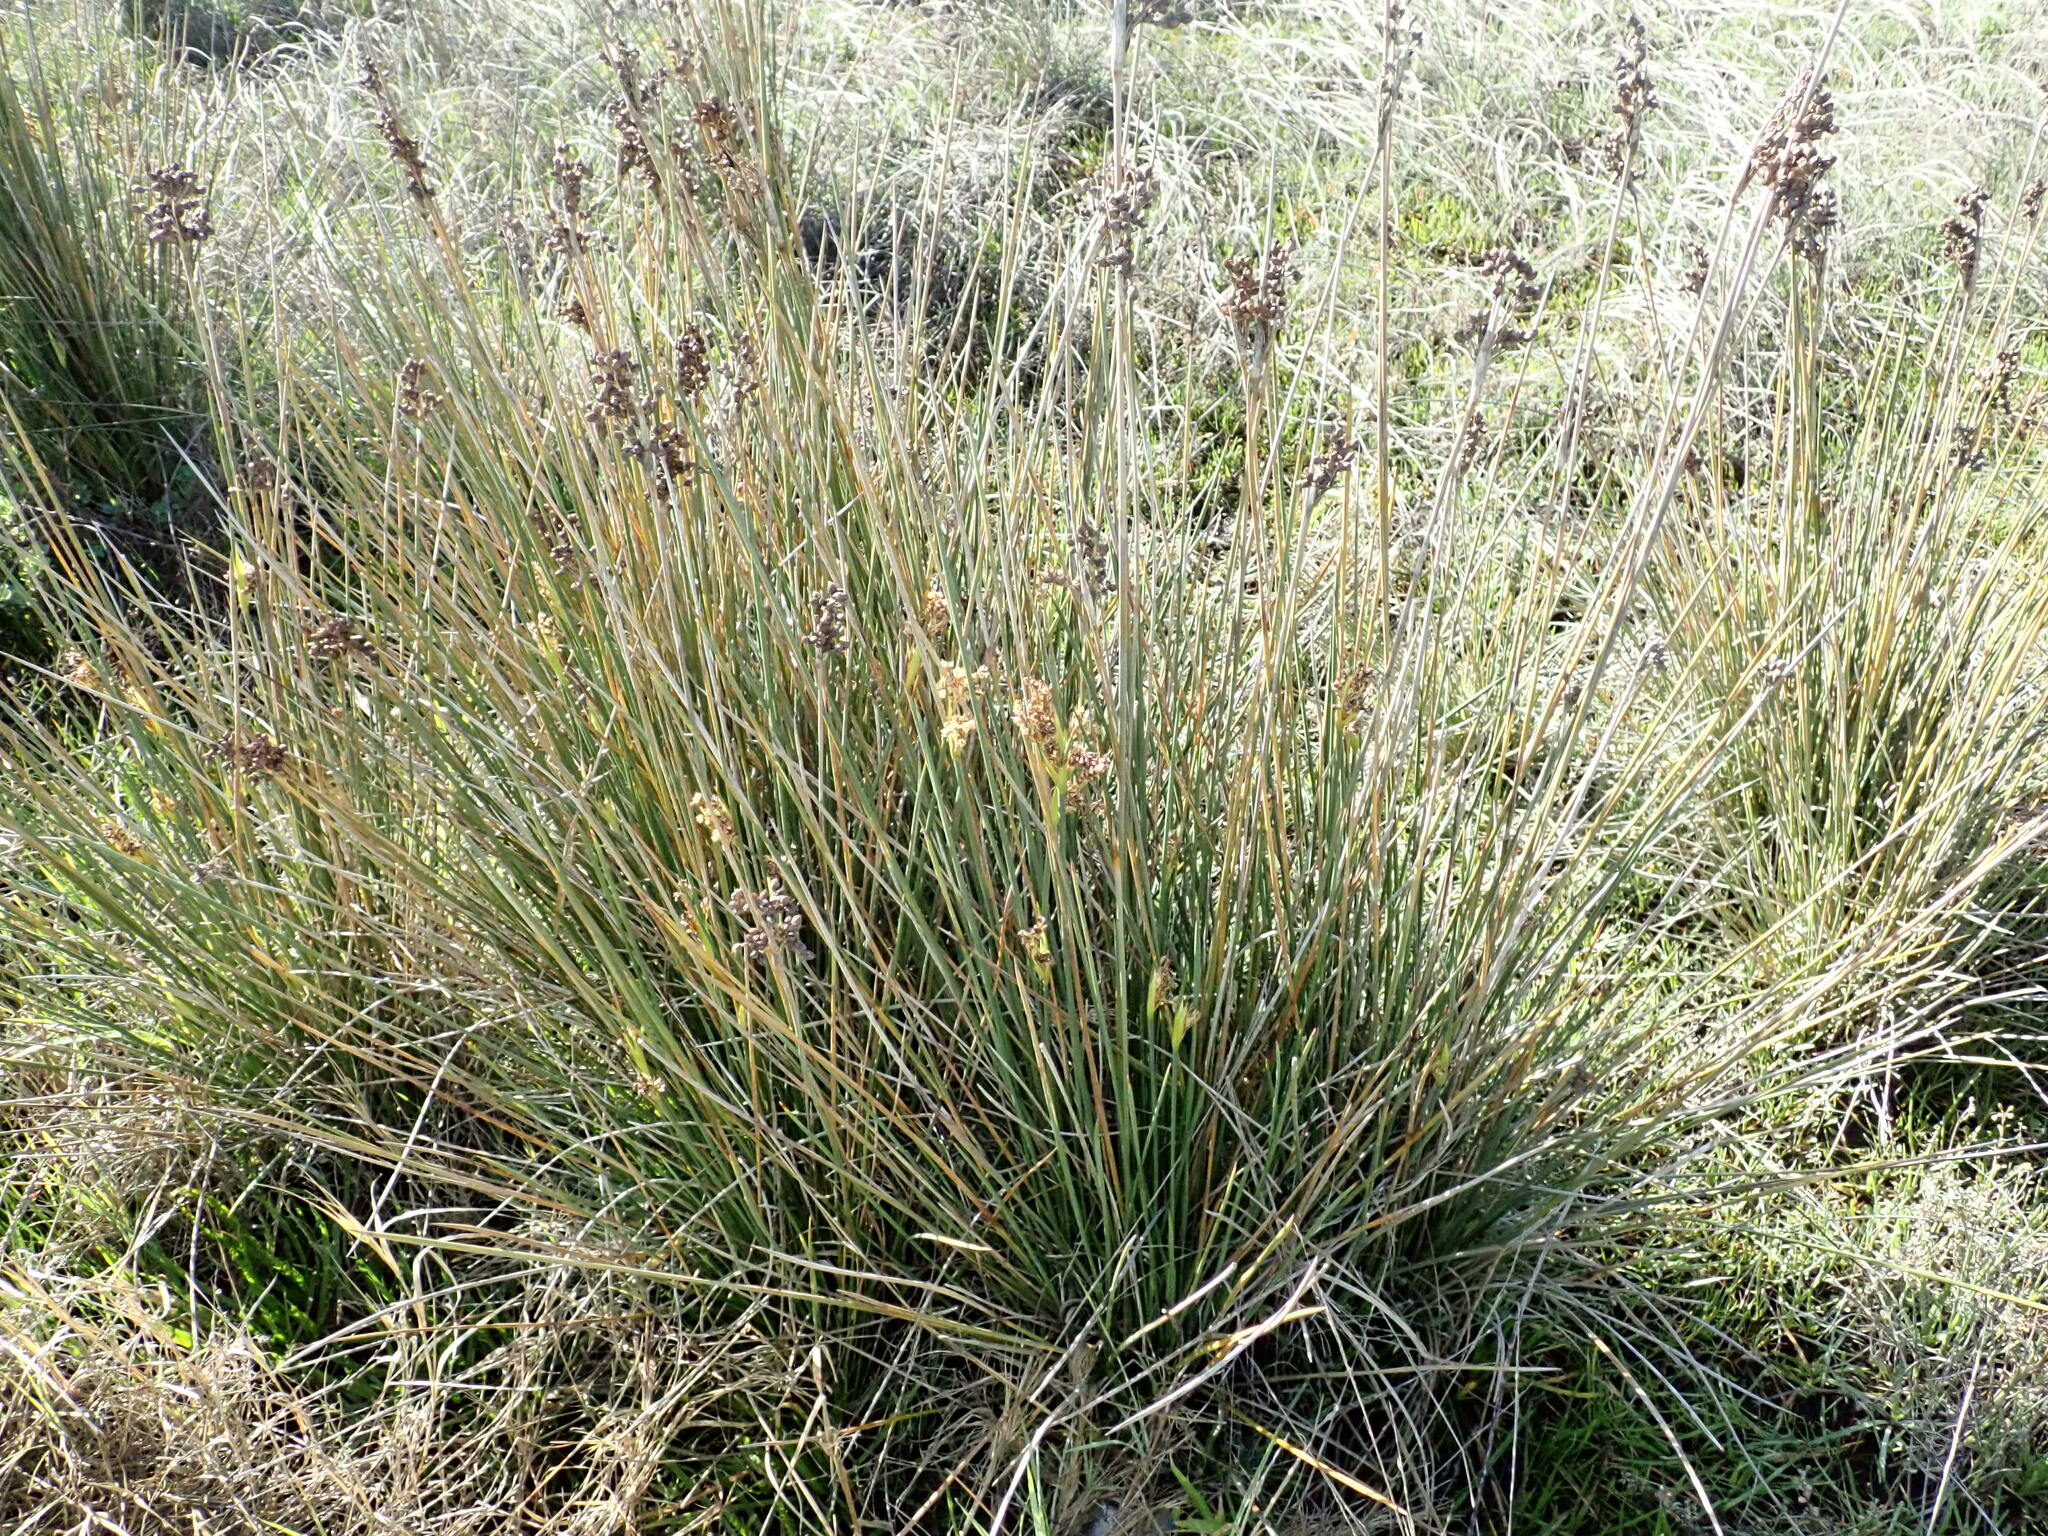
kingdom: Plantae
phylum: Tracheophyta
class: Liliopsida
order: Poales
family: Juncaceae
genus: Juncus
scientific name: Juncus acutus
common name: Sharp rush
